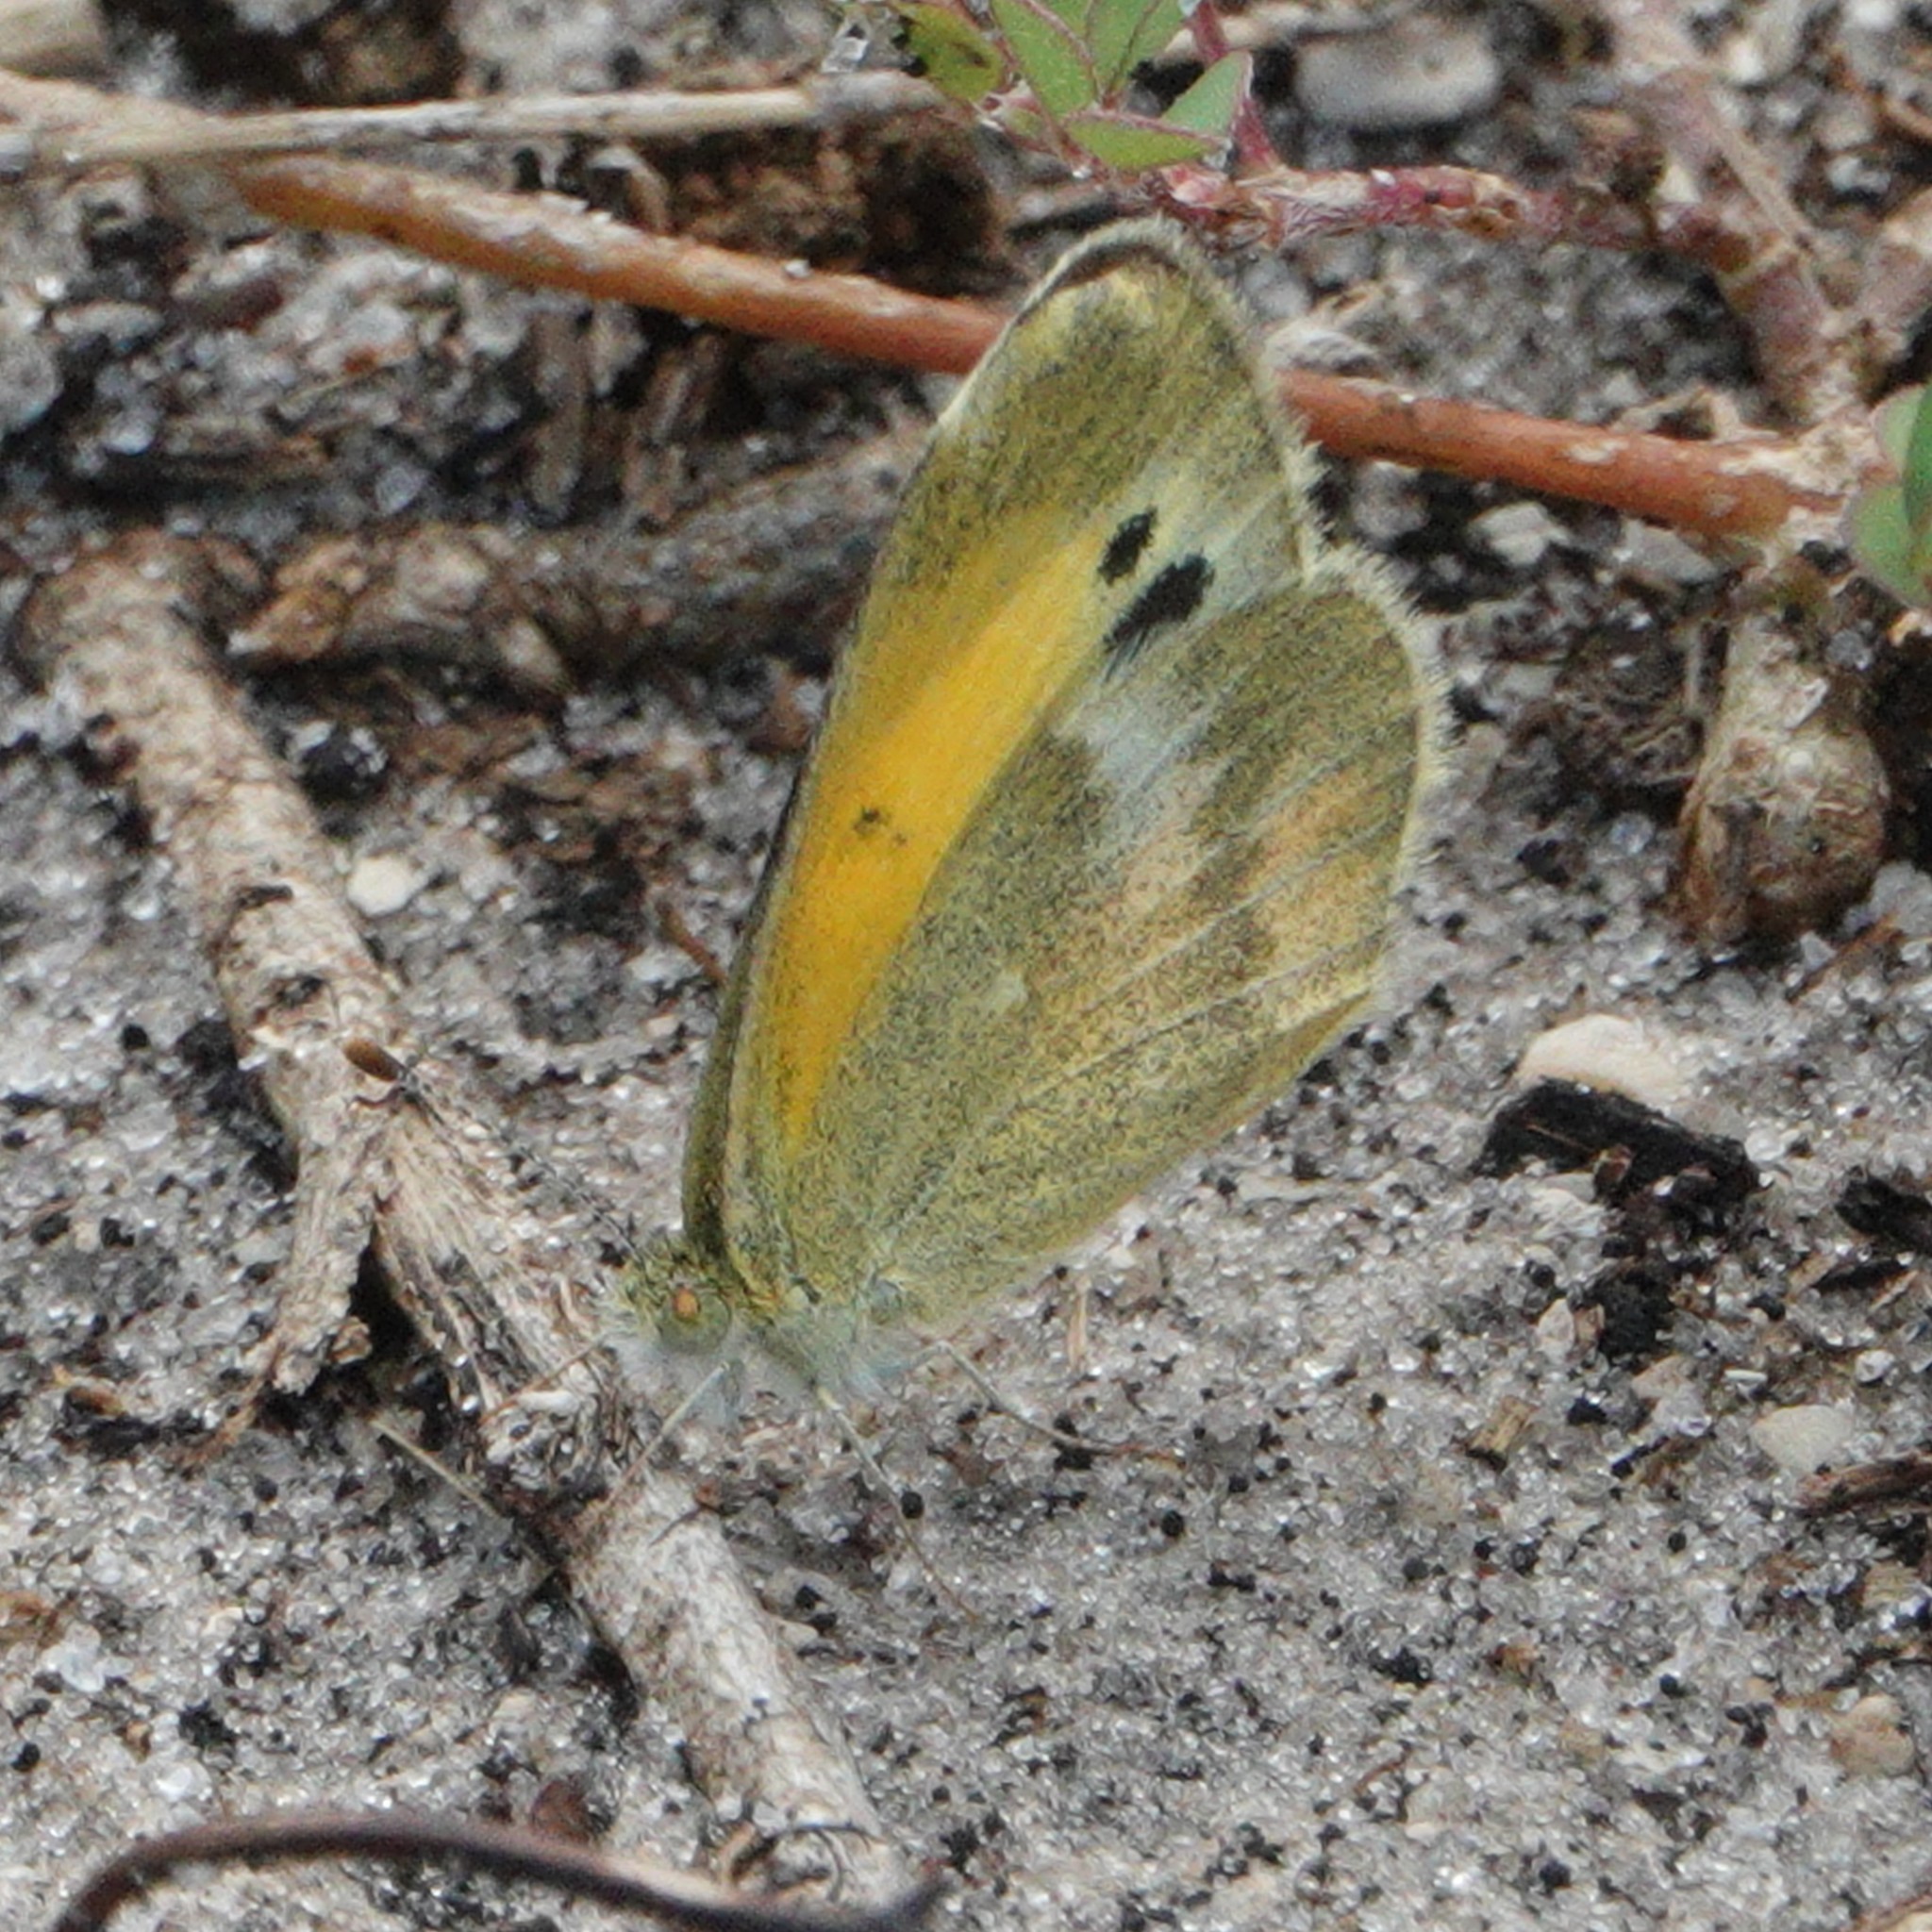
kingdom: Animalia
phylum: Arthropoda
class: Insecta
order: Lepidoptera
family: Pieridae
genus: Nathalis
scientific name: Nathalis iole
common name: Dainty sulphur
